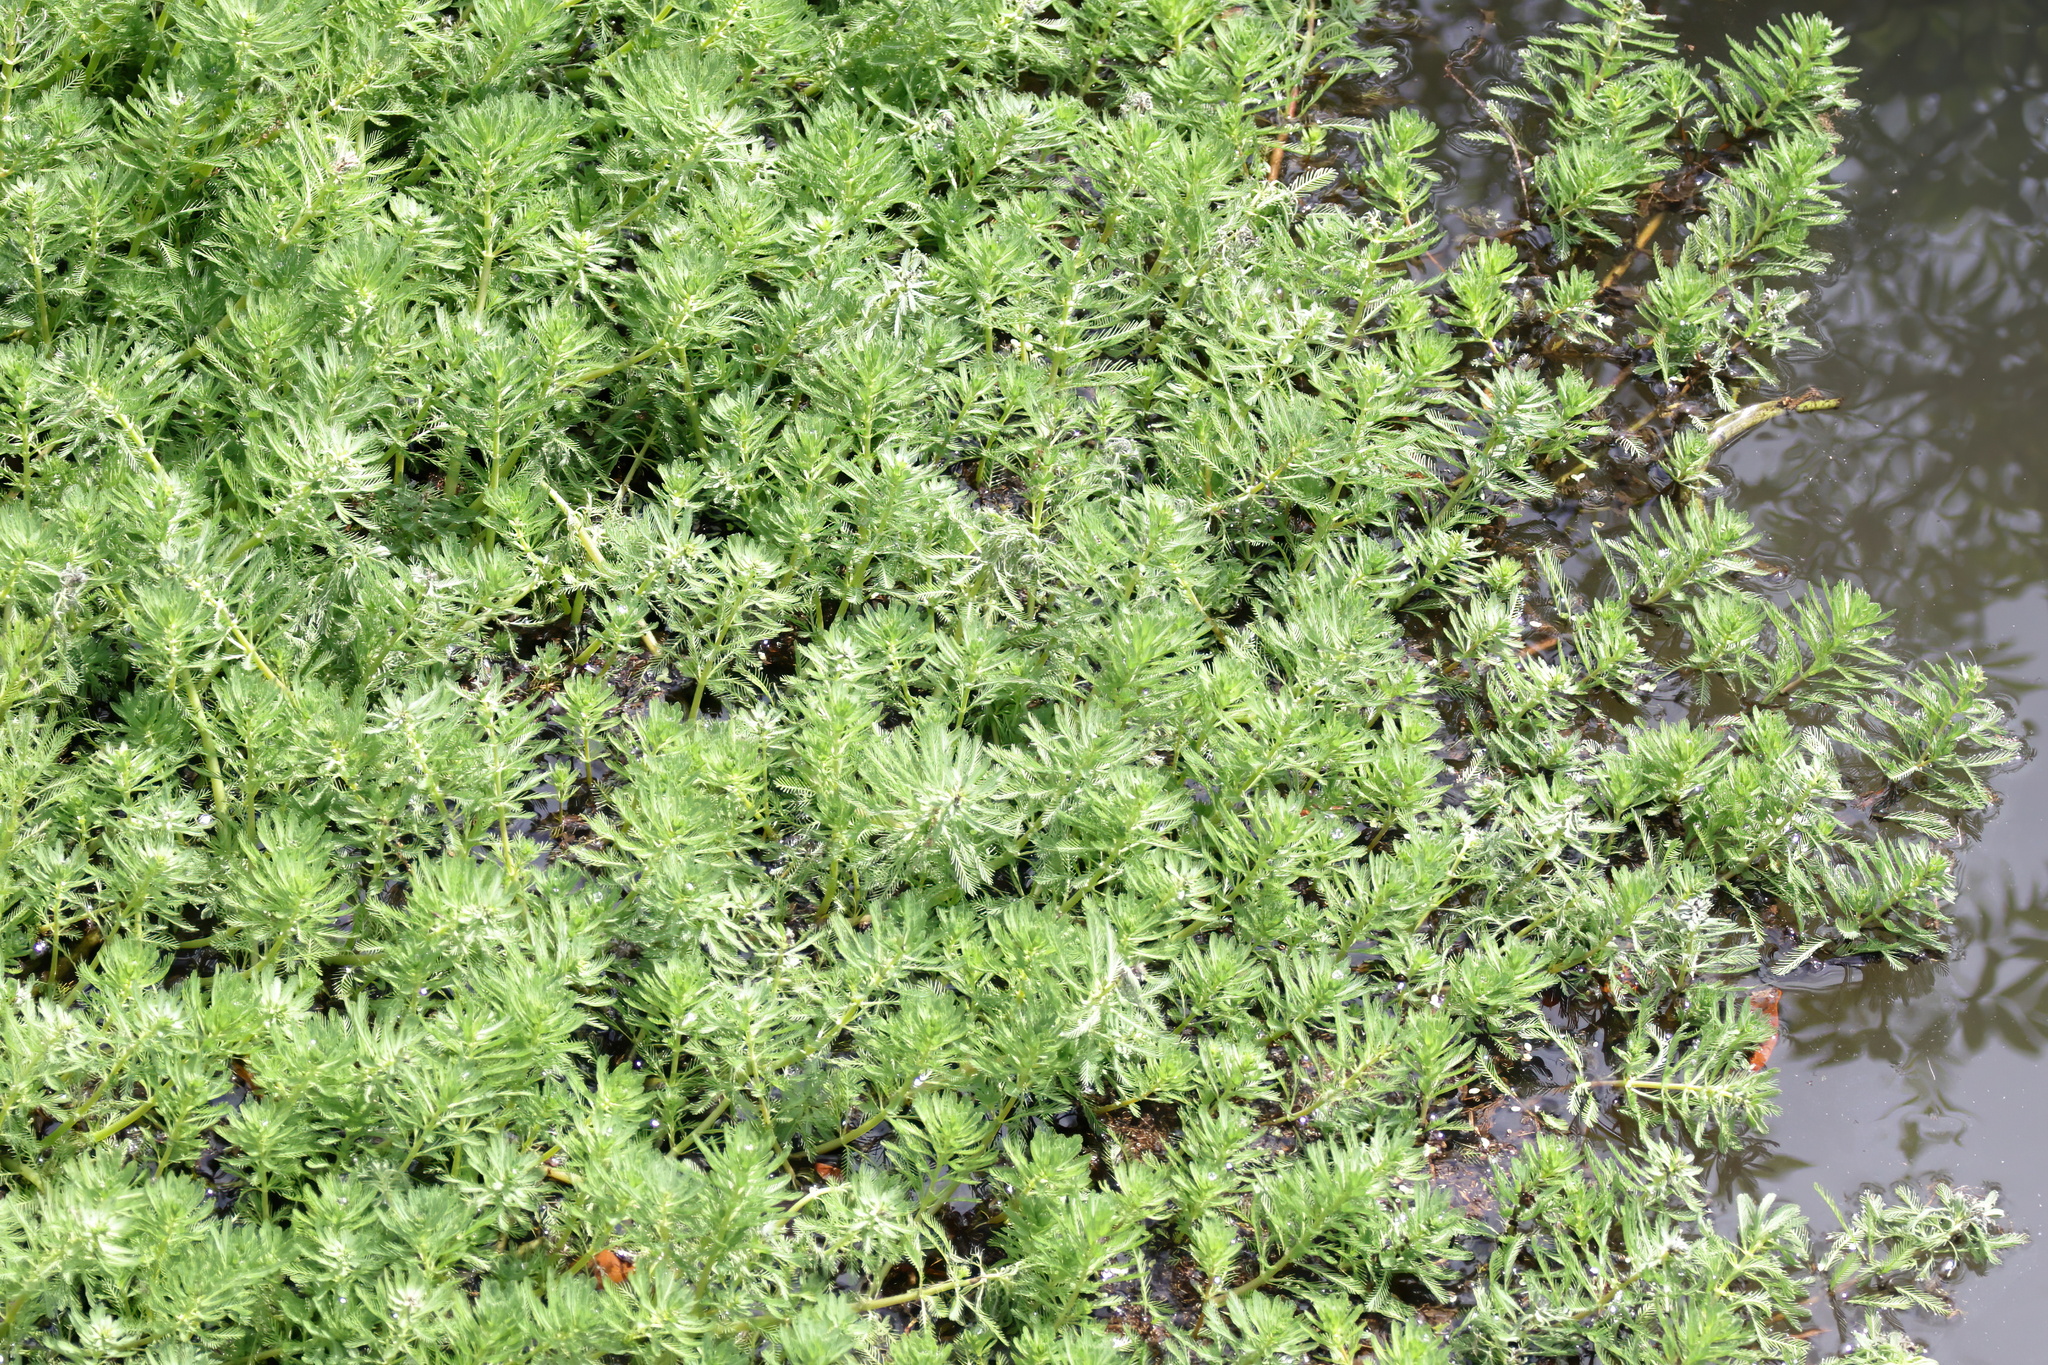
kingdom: Plantae
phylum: Tracheophyta
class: Magnoliopsida
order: Saxifragales
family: Haloragaceae
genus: Myriophyllum
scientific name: Myriophyllum aquaticum
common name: Parrot's feather
